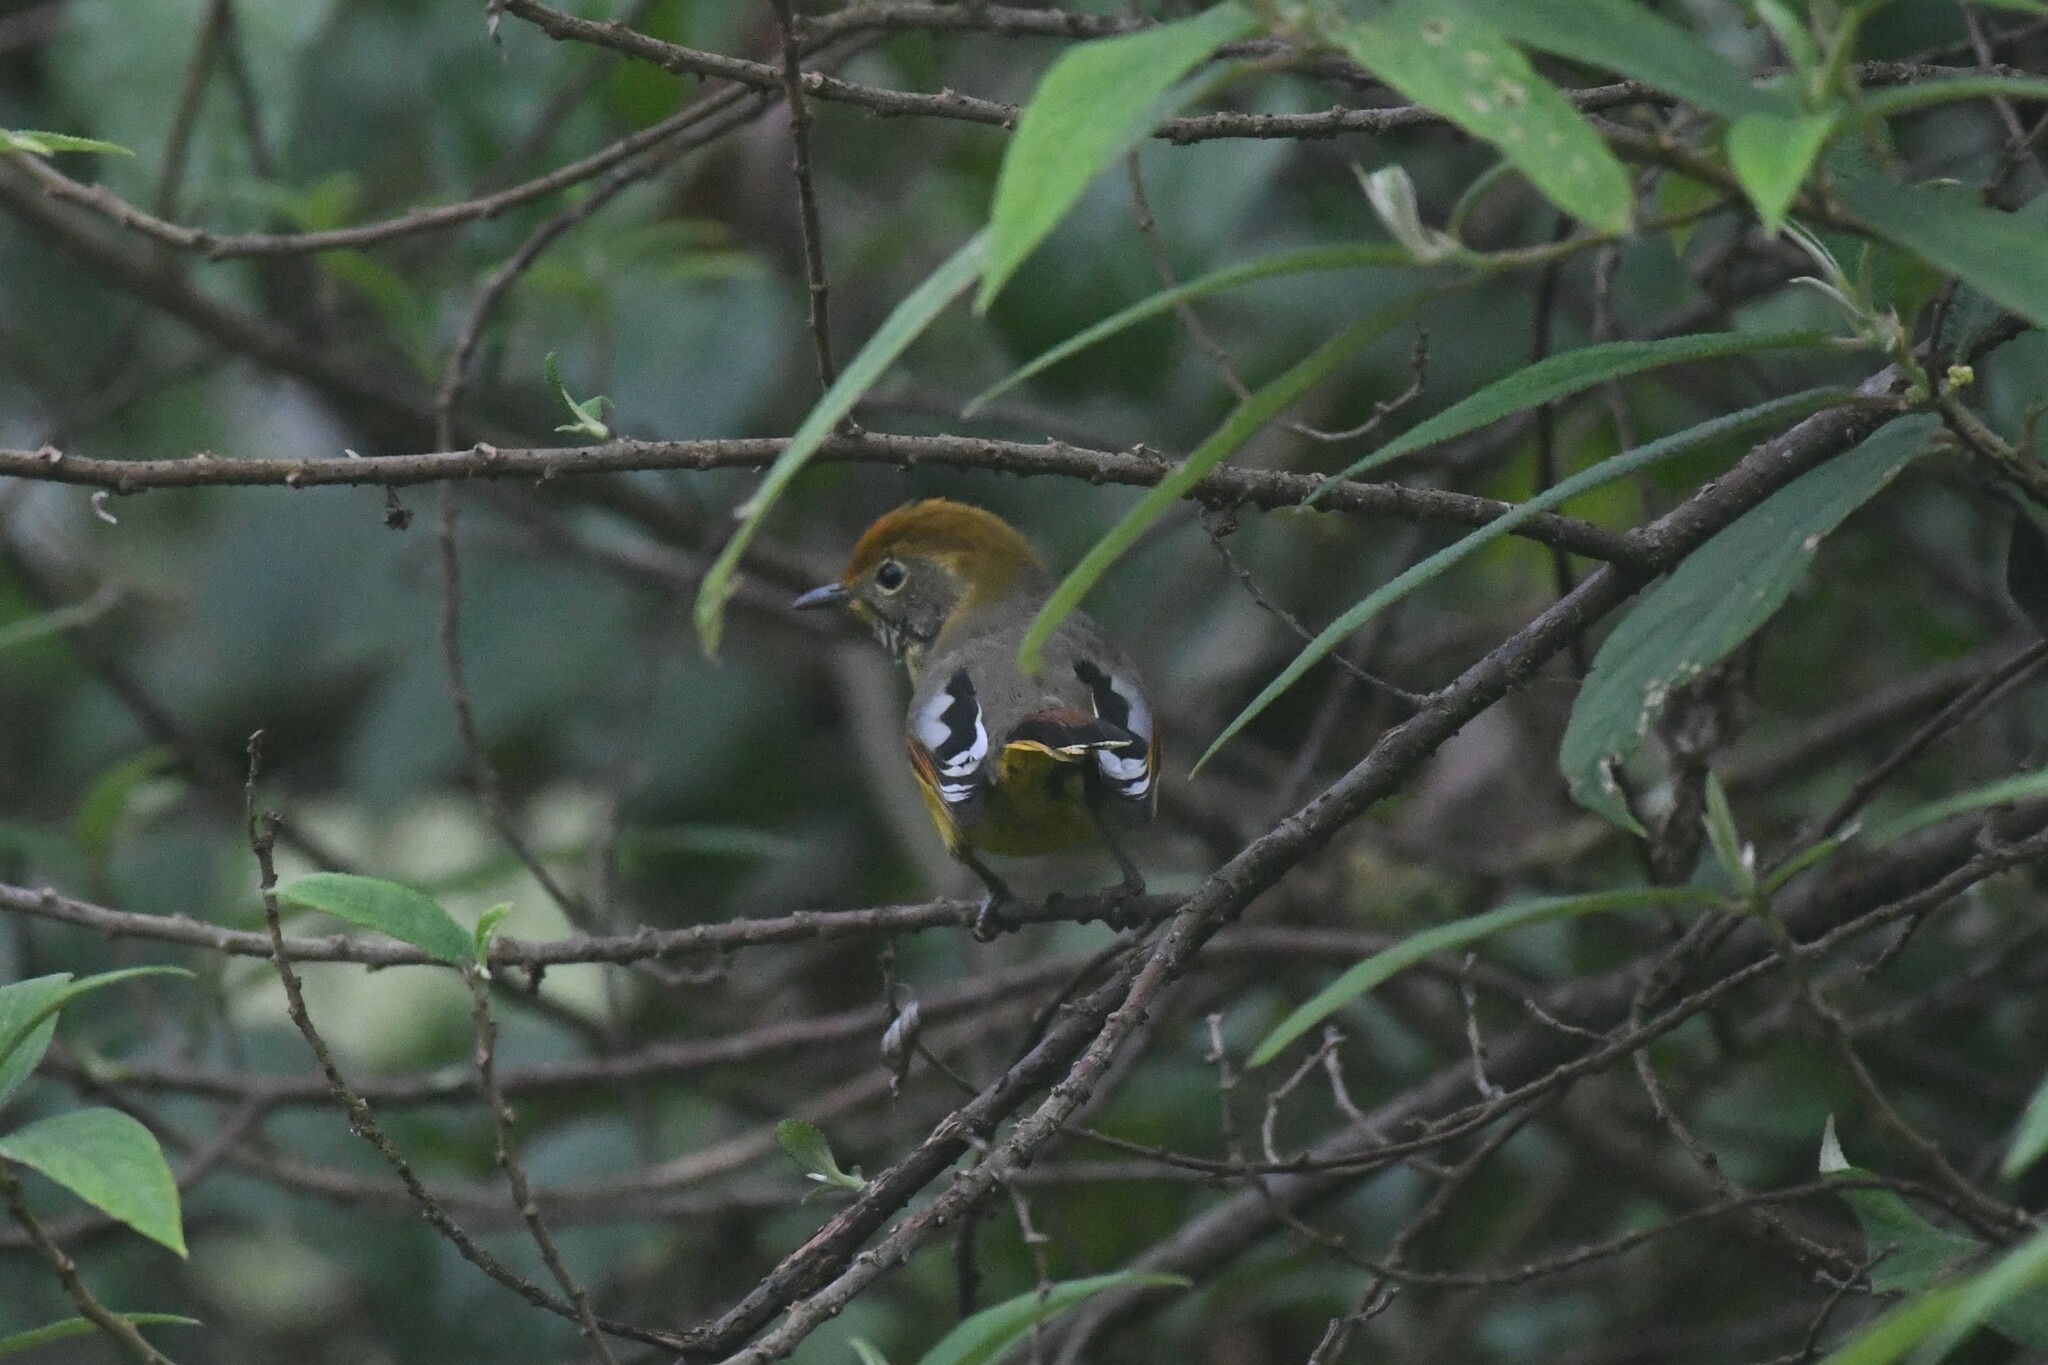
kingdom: Animalia
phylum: Chordata
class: Aves
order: Passeriformes
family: Leiothrichidae
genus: Minla
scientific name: Minla strigula
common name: Chestnut-tailed minla
